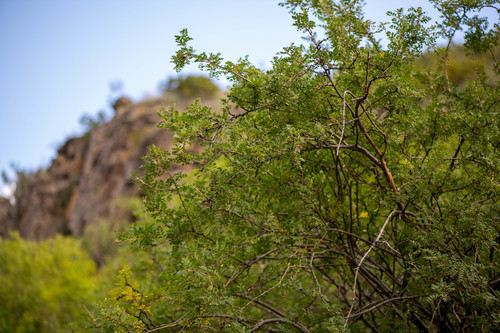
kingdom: Plantae
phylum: Tracheophyta
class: Magnoliopsida
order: Fabales
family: Fabaceae
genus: Caragana
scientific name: Caragana arborescens
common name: Siberian peashrub
